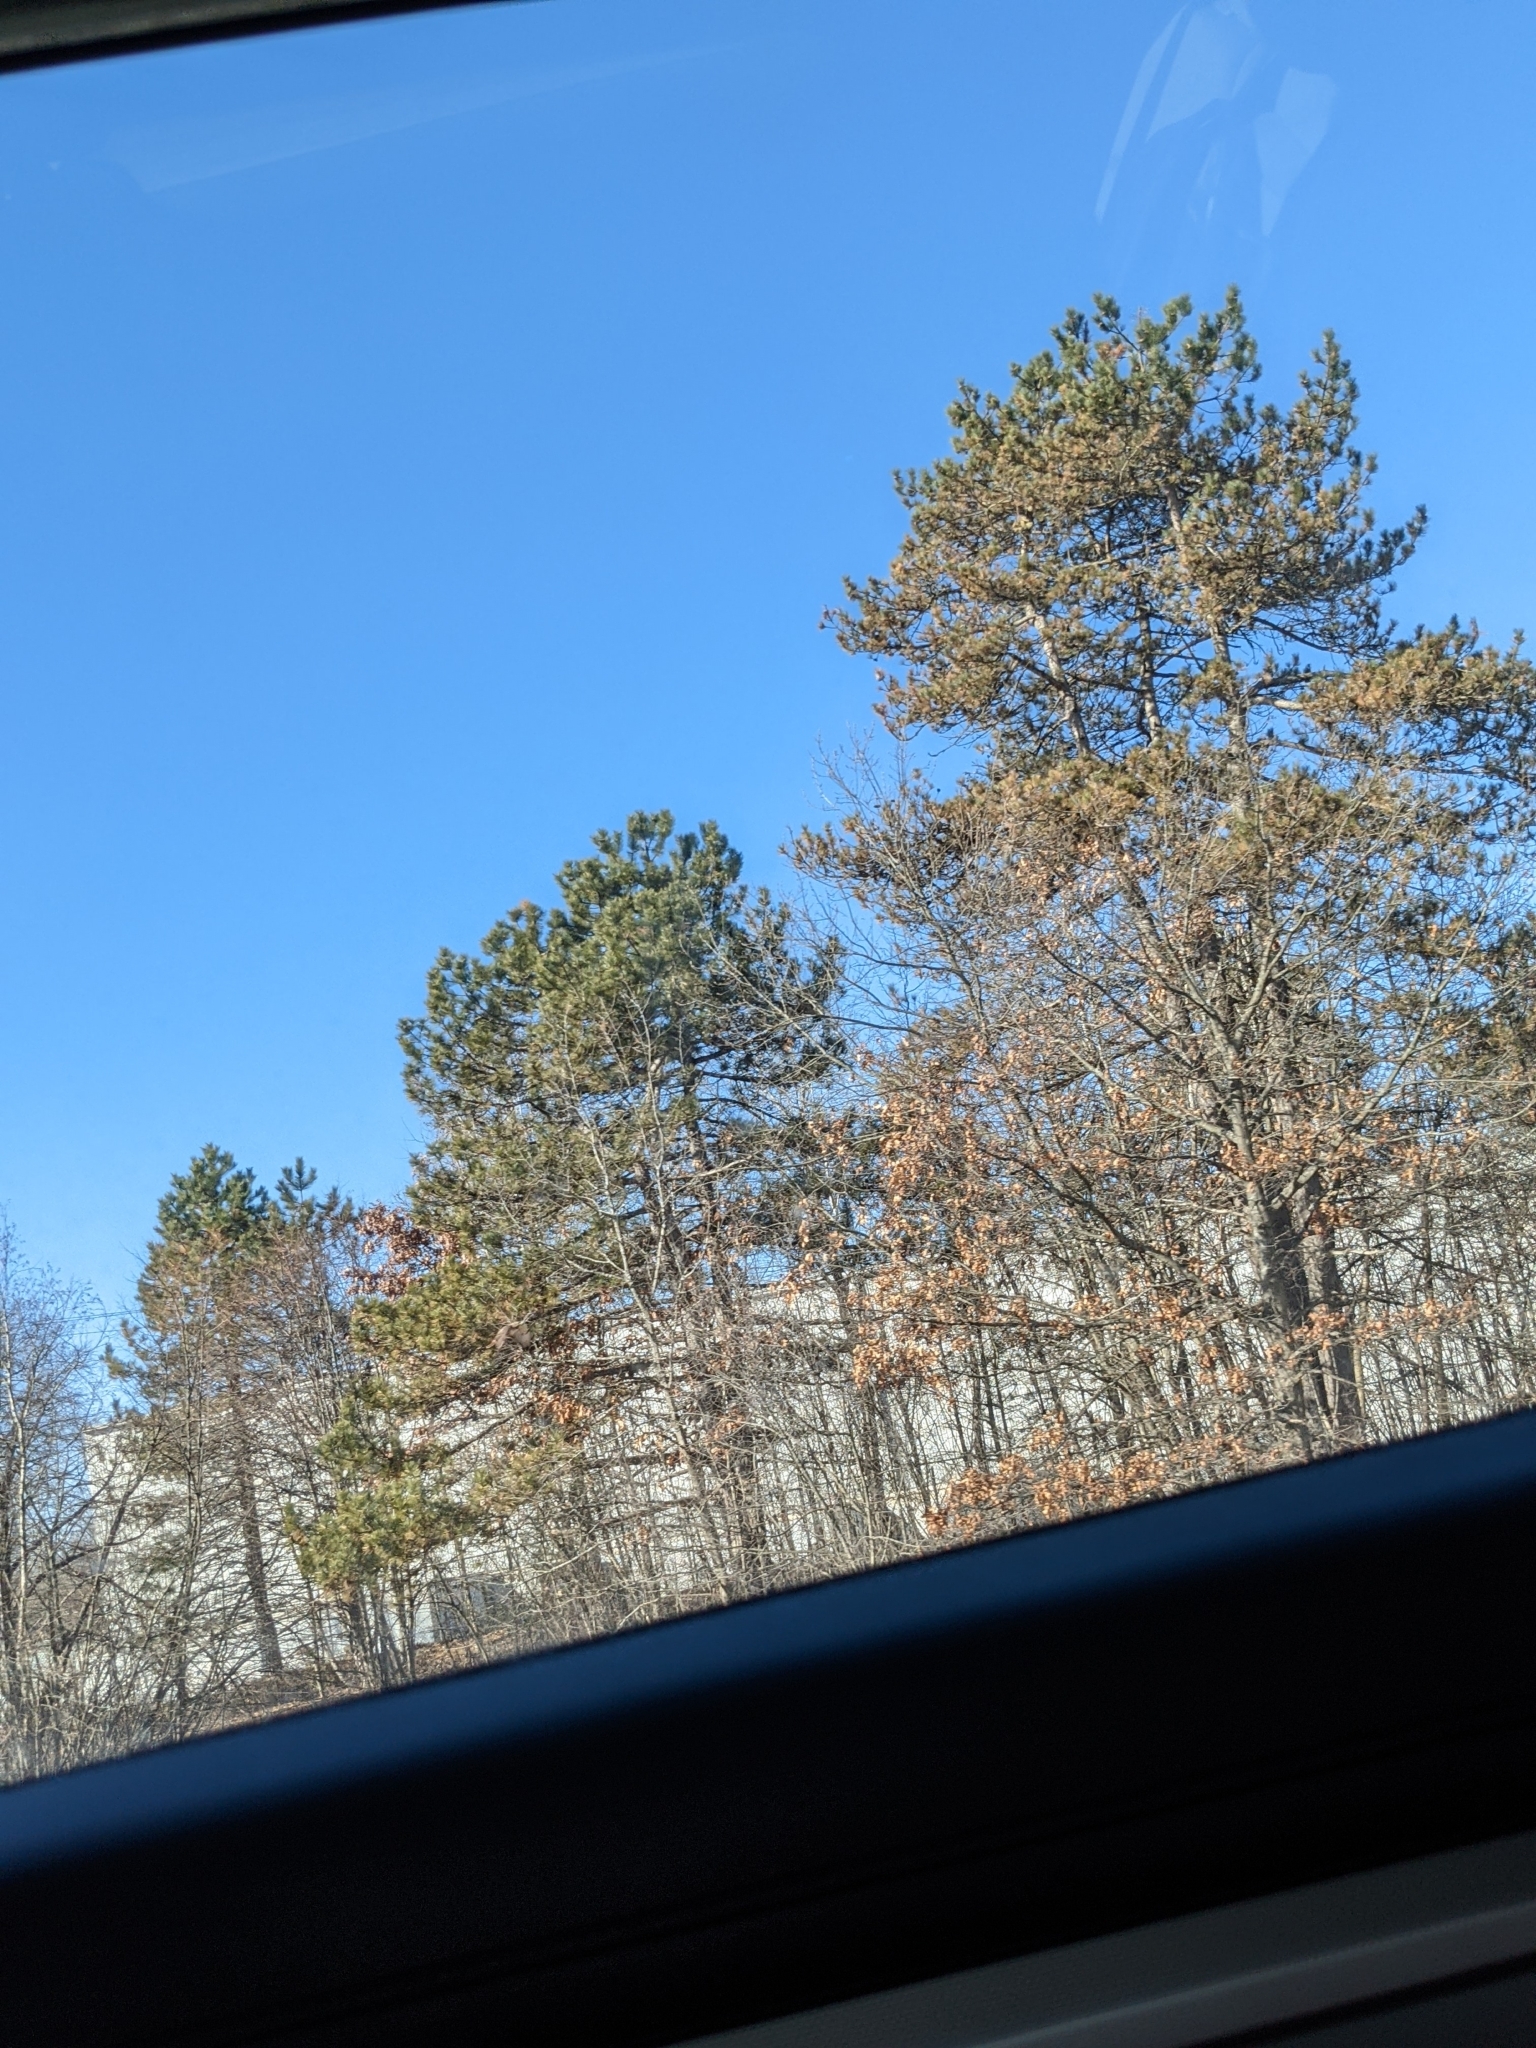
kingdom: Plantae
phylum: Tracheophyta
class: Pinopsida
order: Pinales
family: Pinaceae
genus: Pinus
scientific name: Pinus strobus
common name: Weymouth pine
